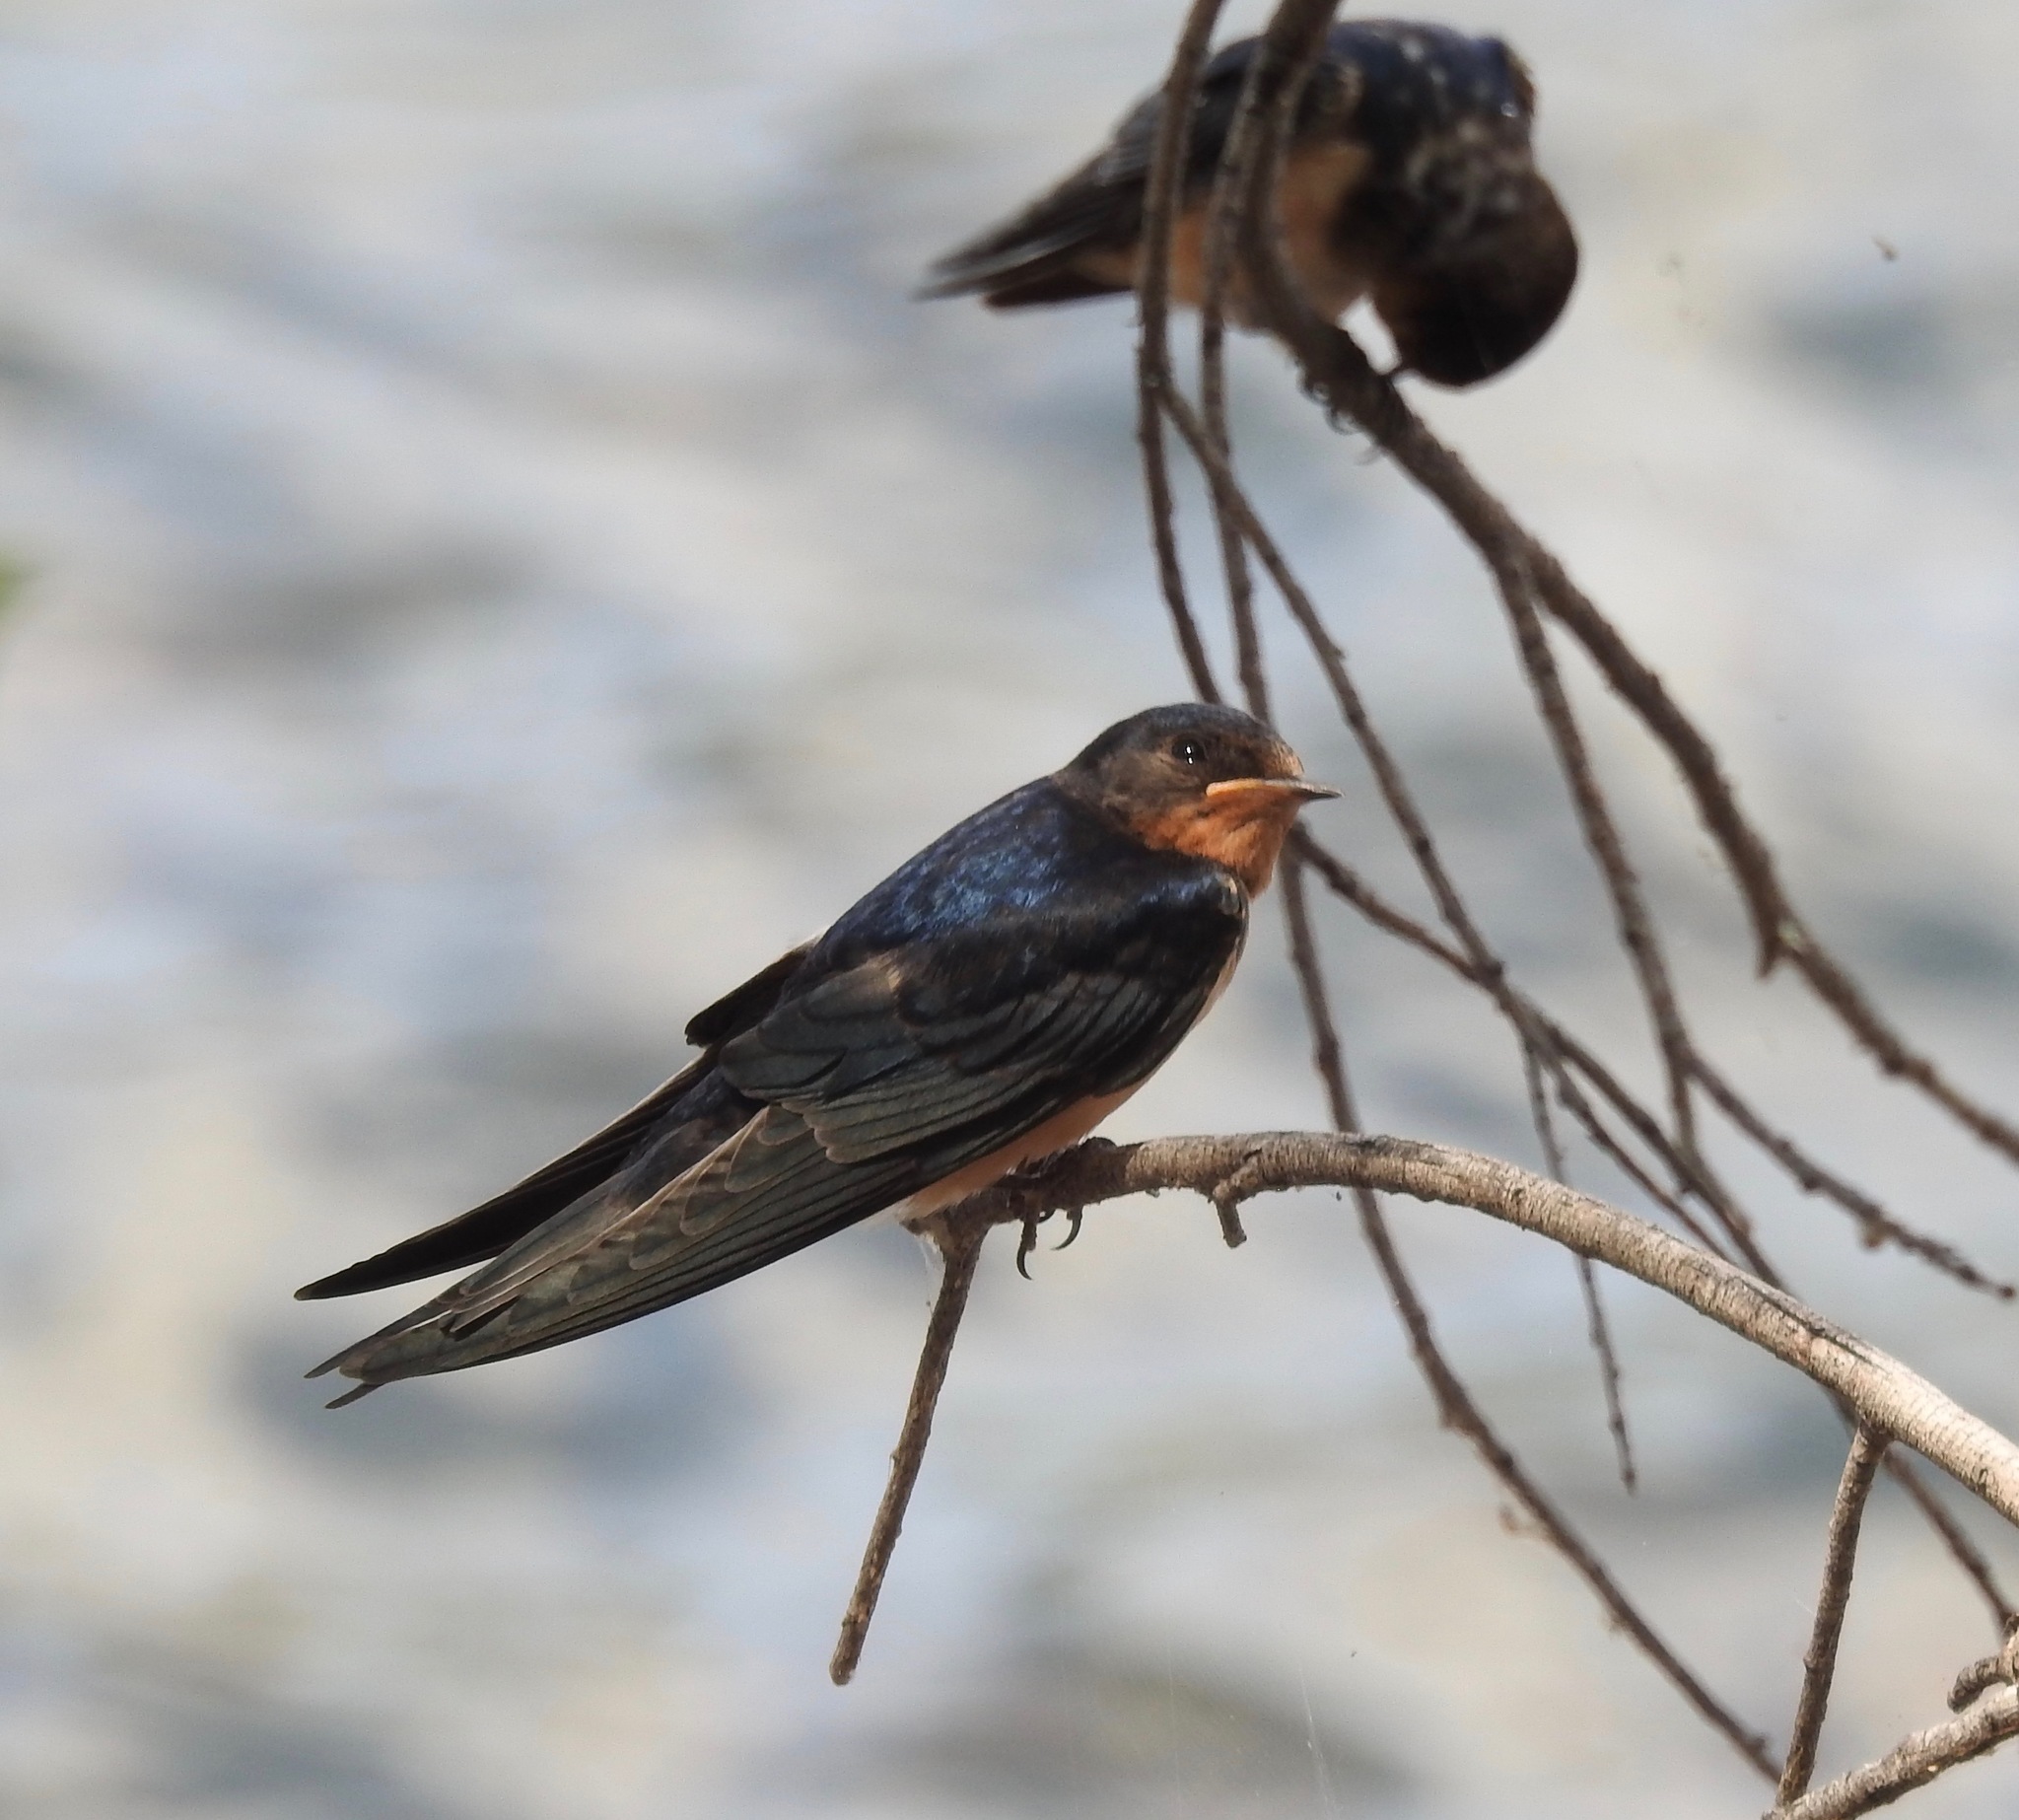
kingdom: Animalia
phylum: Chordata
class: Aves
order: Passeriformes
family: Hirundinidae
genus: Hirundo
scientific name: Hirundo rustica
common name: Barn swallow
